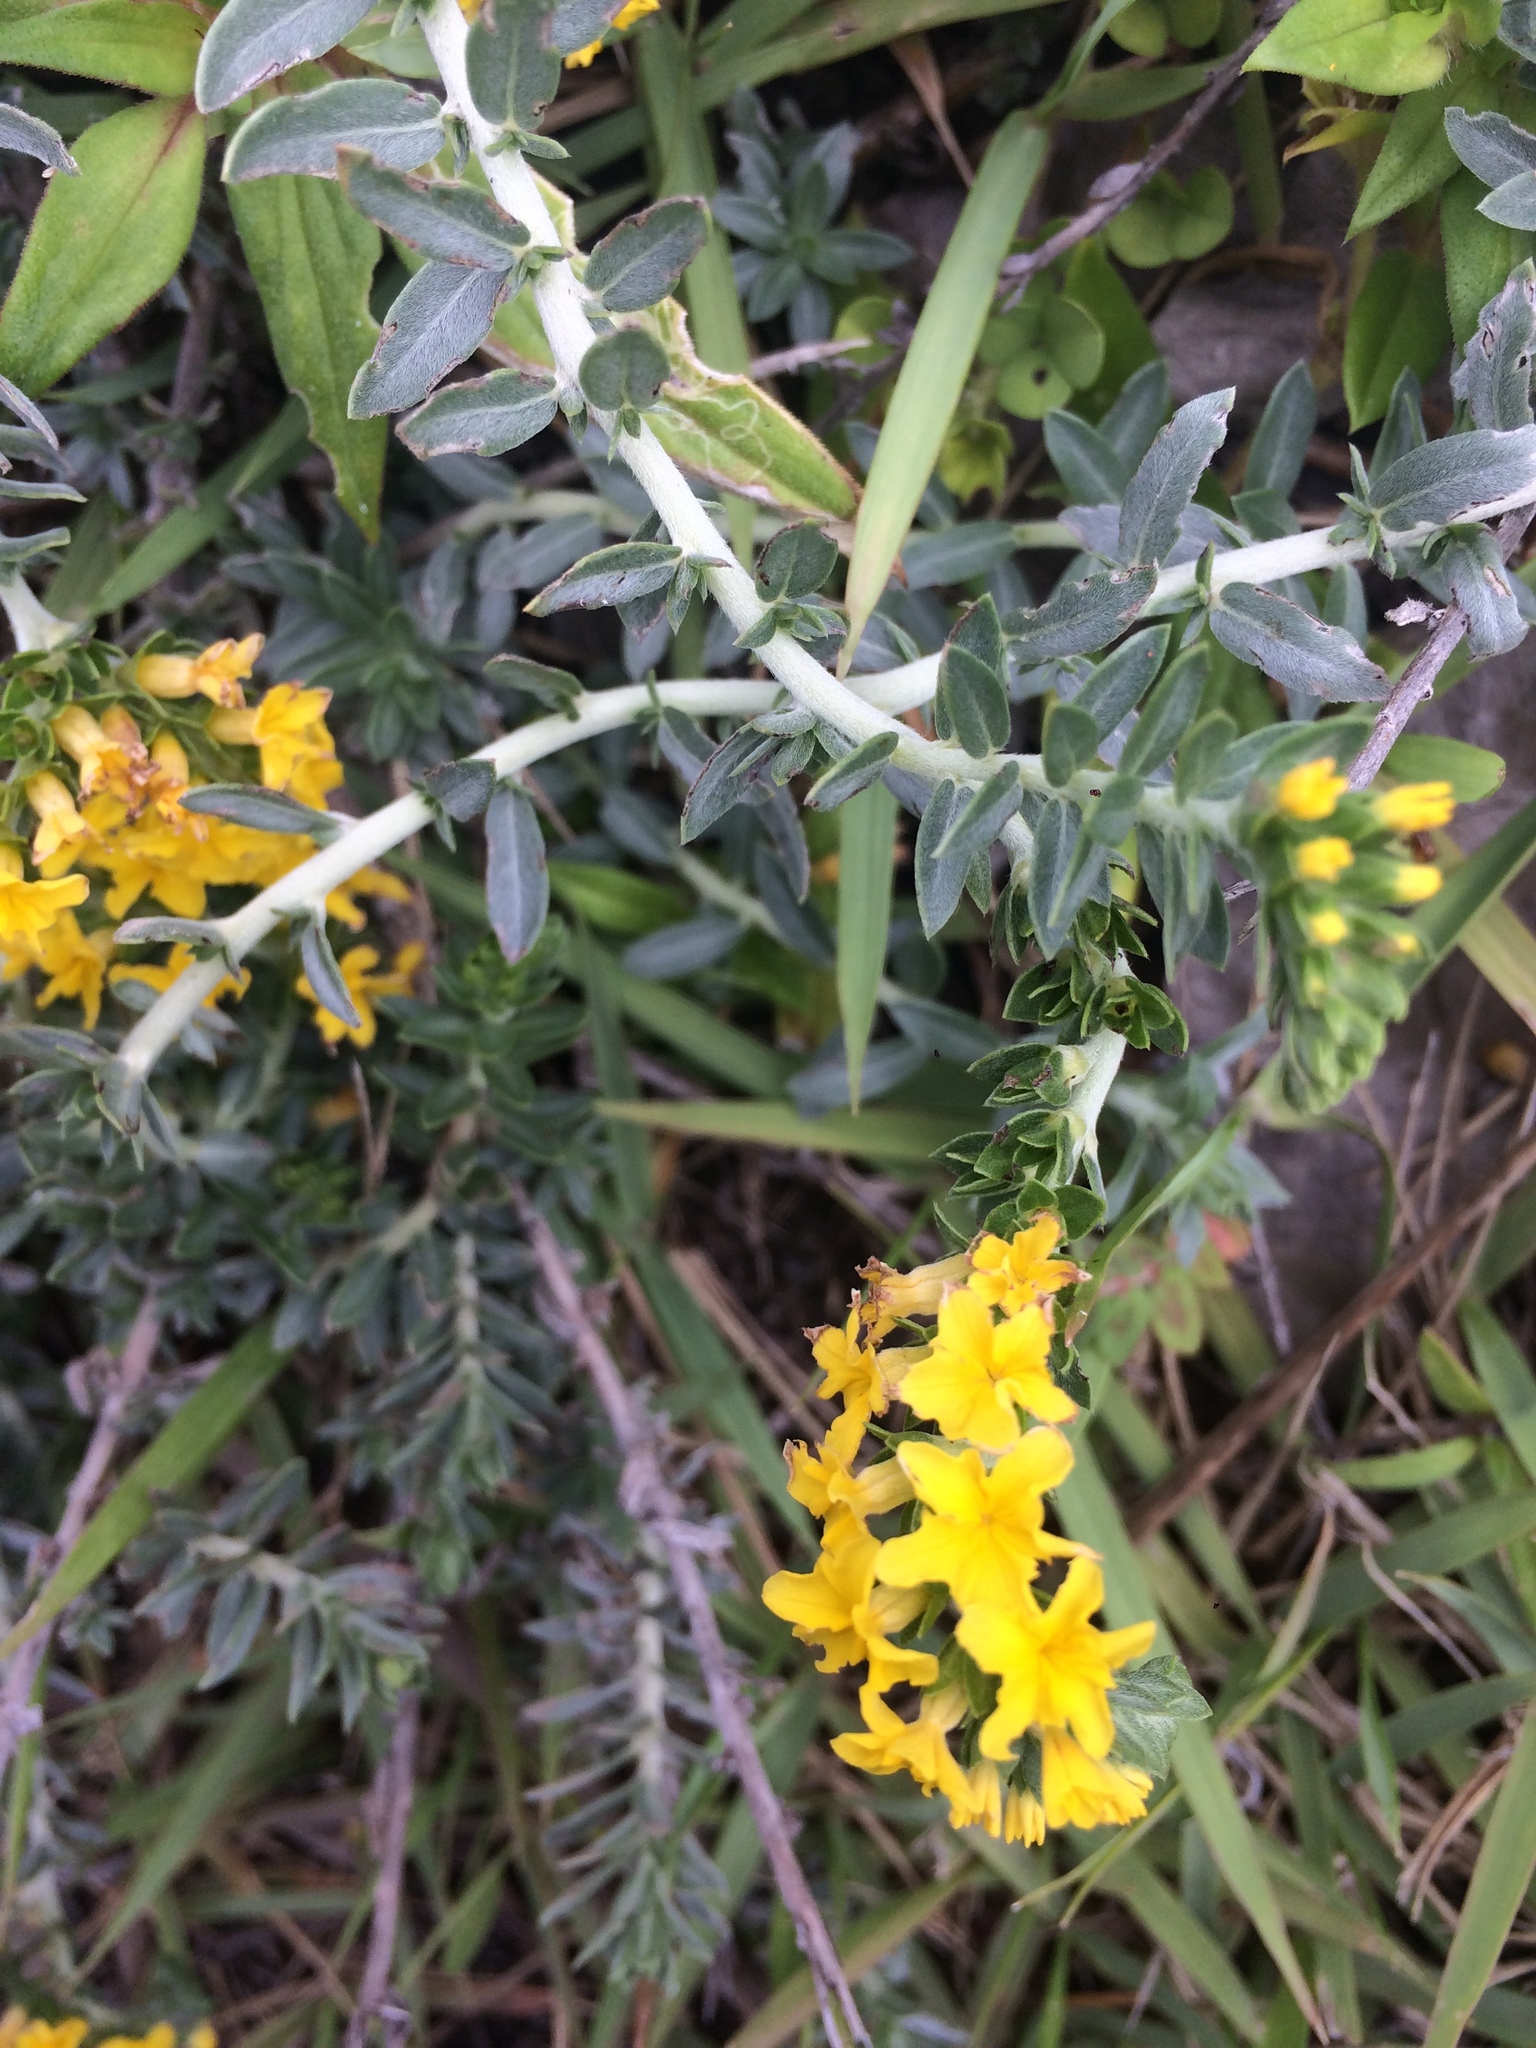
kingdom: Plantae
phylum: Tracheophyta
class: Magnoliopsida
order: Boraginales
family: Heliotropiaceae
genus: Euploca
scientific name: Euploca polyphylla
